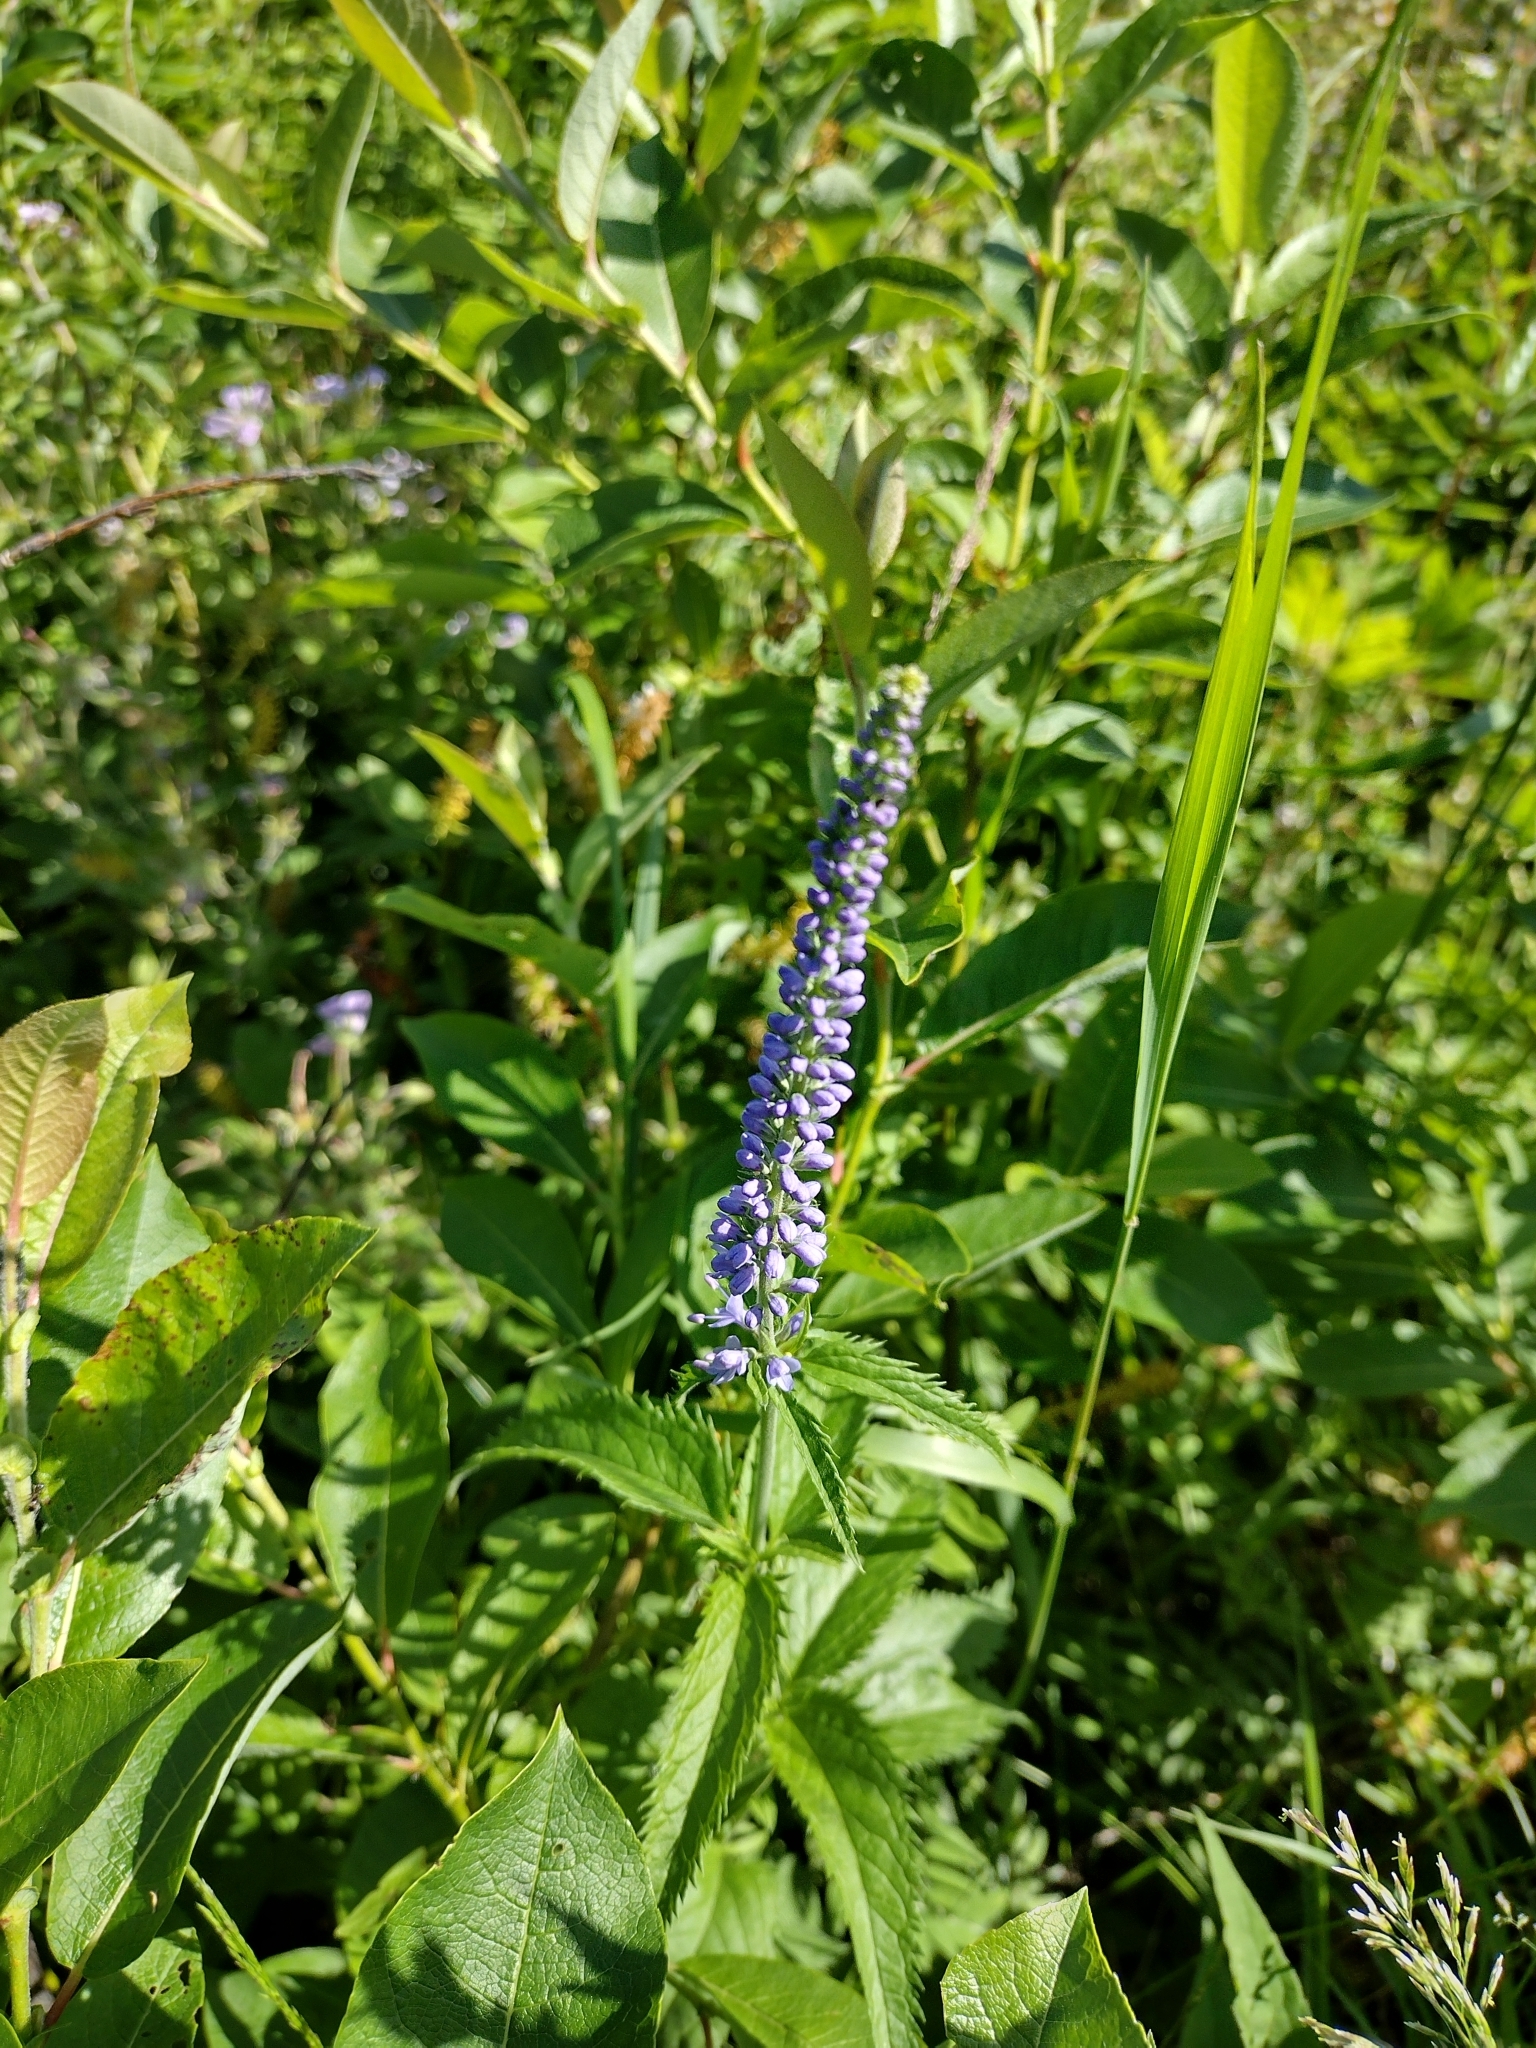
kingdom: Plantae
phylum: Tracheophyta
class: Magnoliopsida
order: Lamiales
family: Plantaginaceae
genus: Veronica
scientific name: Veronica longifolia
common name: Garden speedwell
